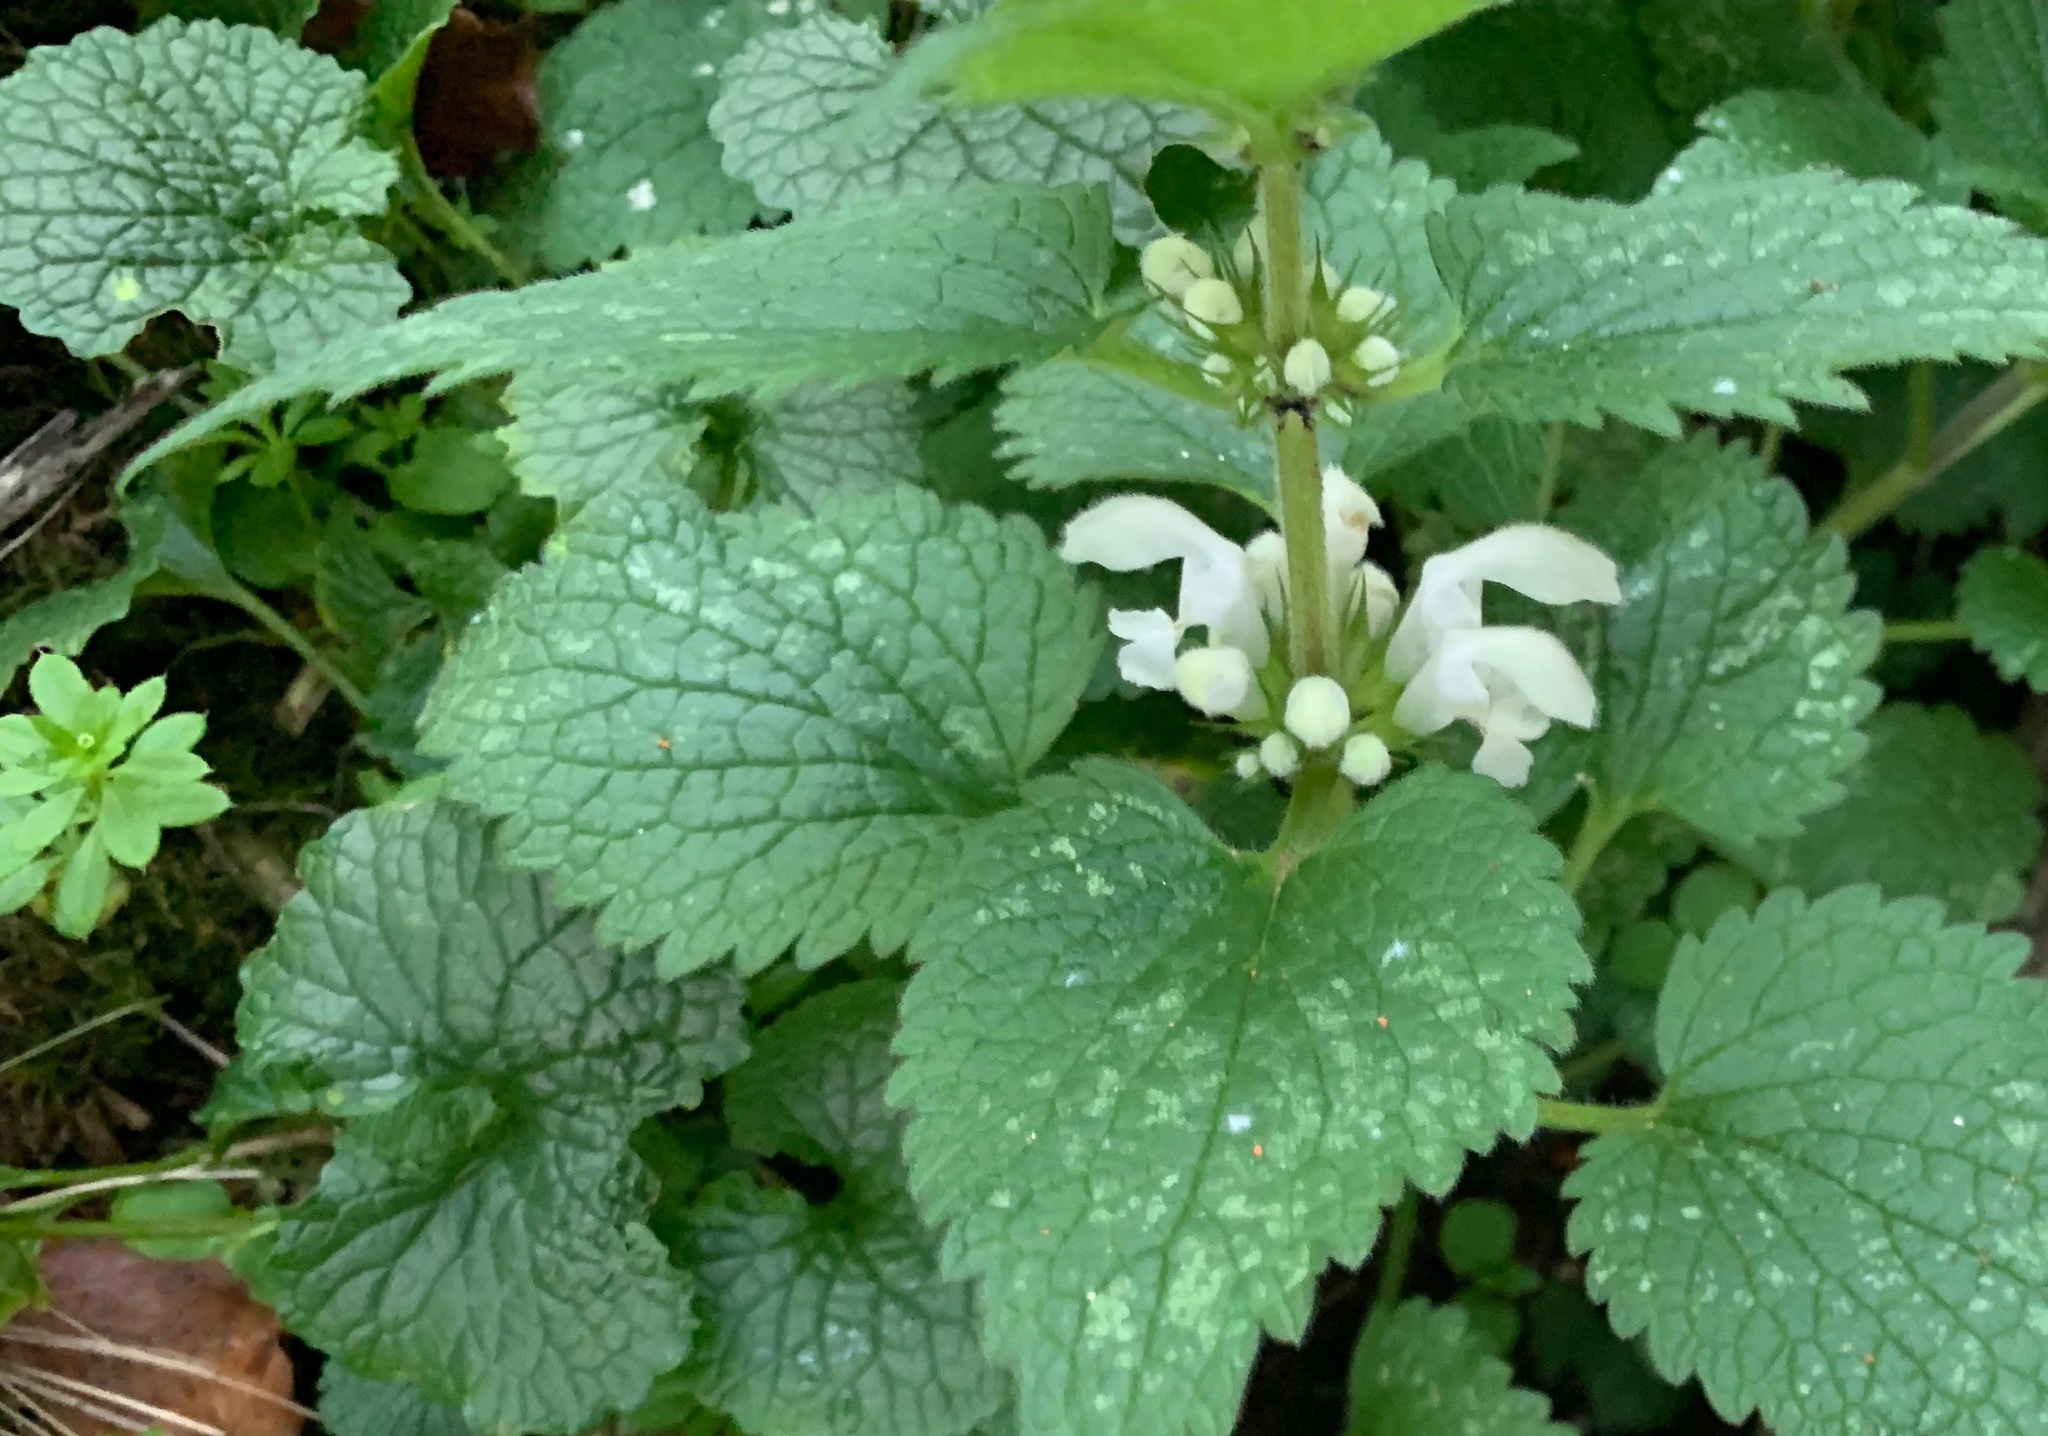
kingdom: Plantae
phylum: Tracheophyta
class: Magnoliopsida
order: Lamiales
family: Lamiaceae
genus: Lamium
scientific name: Lamium album
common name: White dead-nettle
